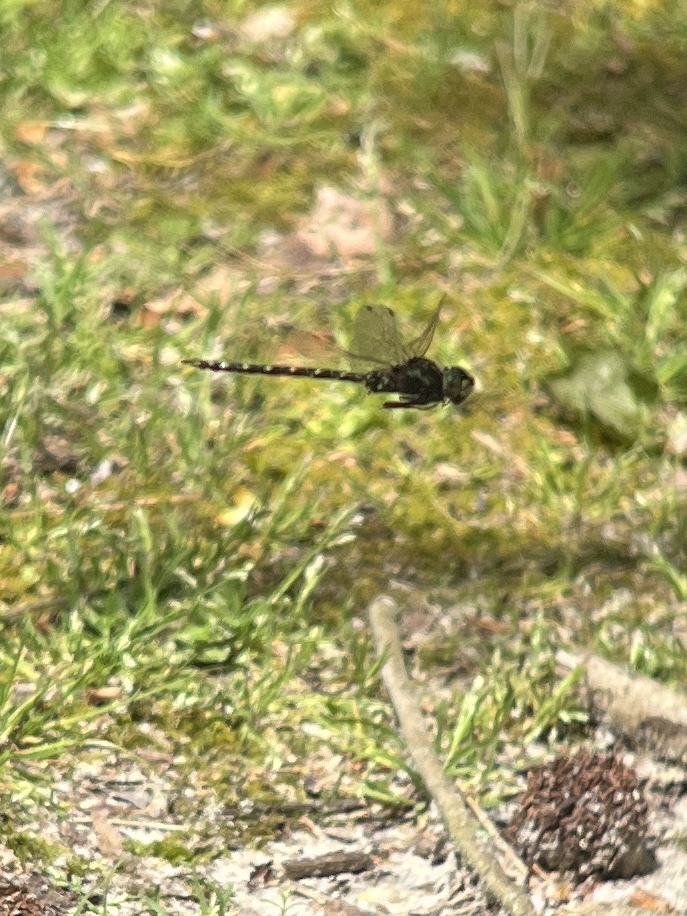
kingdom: Animalia
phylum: Arthropoda
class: Insecta
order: Odonata
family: Aeshnidae
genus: Gomphaeschna
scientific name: Gomphaeschna furcillata
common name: Harlequin darner
